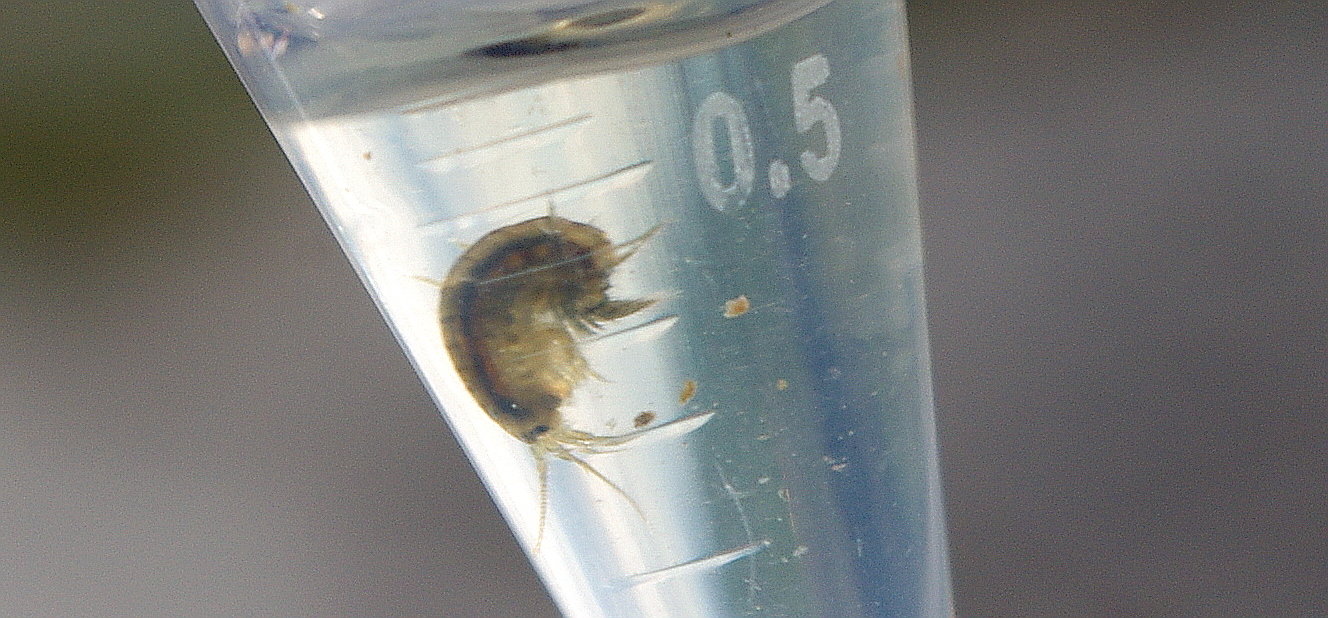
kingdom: Animalia
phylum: Arthropoda
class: Malacostraca
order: Amphipoda
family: Gammaridae
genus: Gammarus
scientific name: Gammarus duebeni
